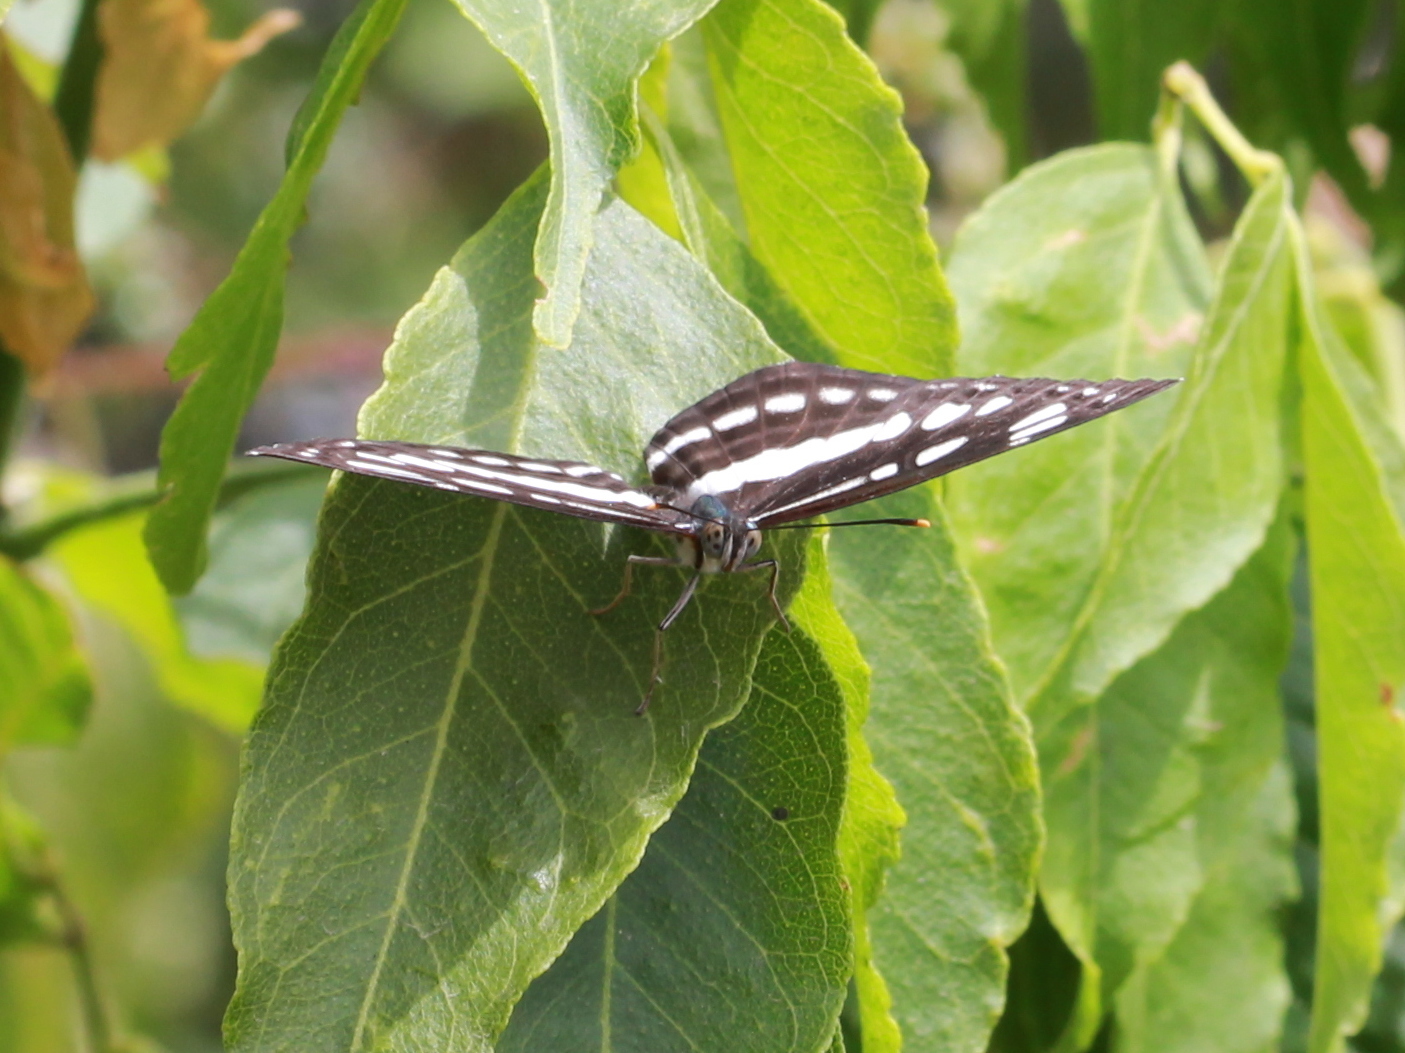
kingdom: Animalia
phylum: Arthropoda
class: Insecta
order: Lepidoptera
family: Nymphalidae
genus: Neptis
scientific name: Neptis hylas
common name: Common sailer
